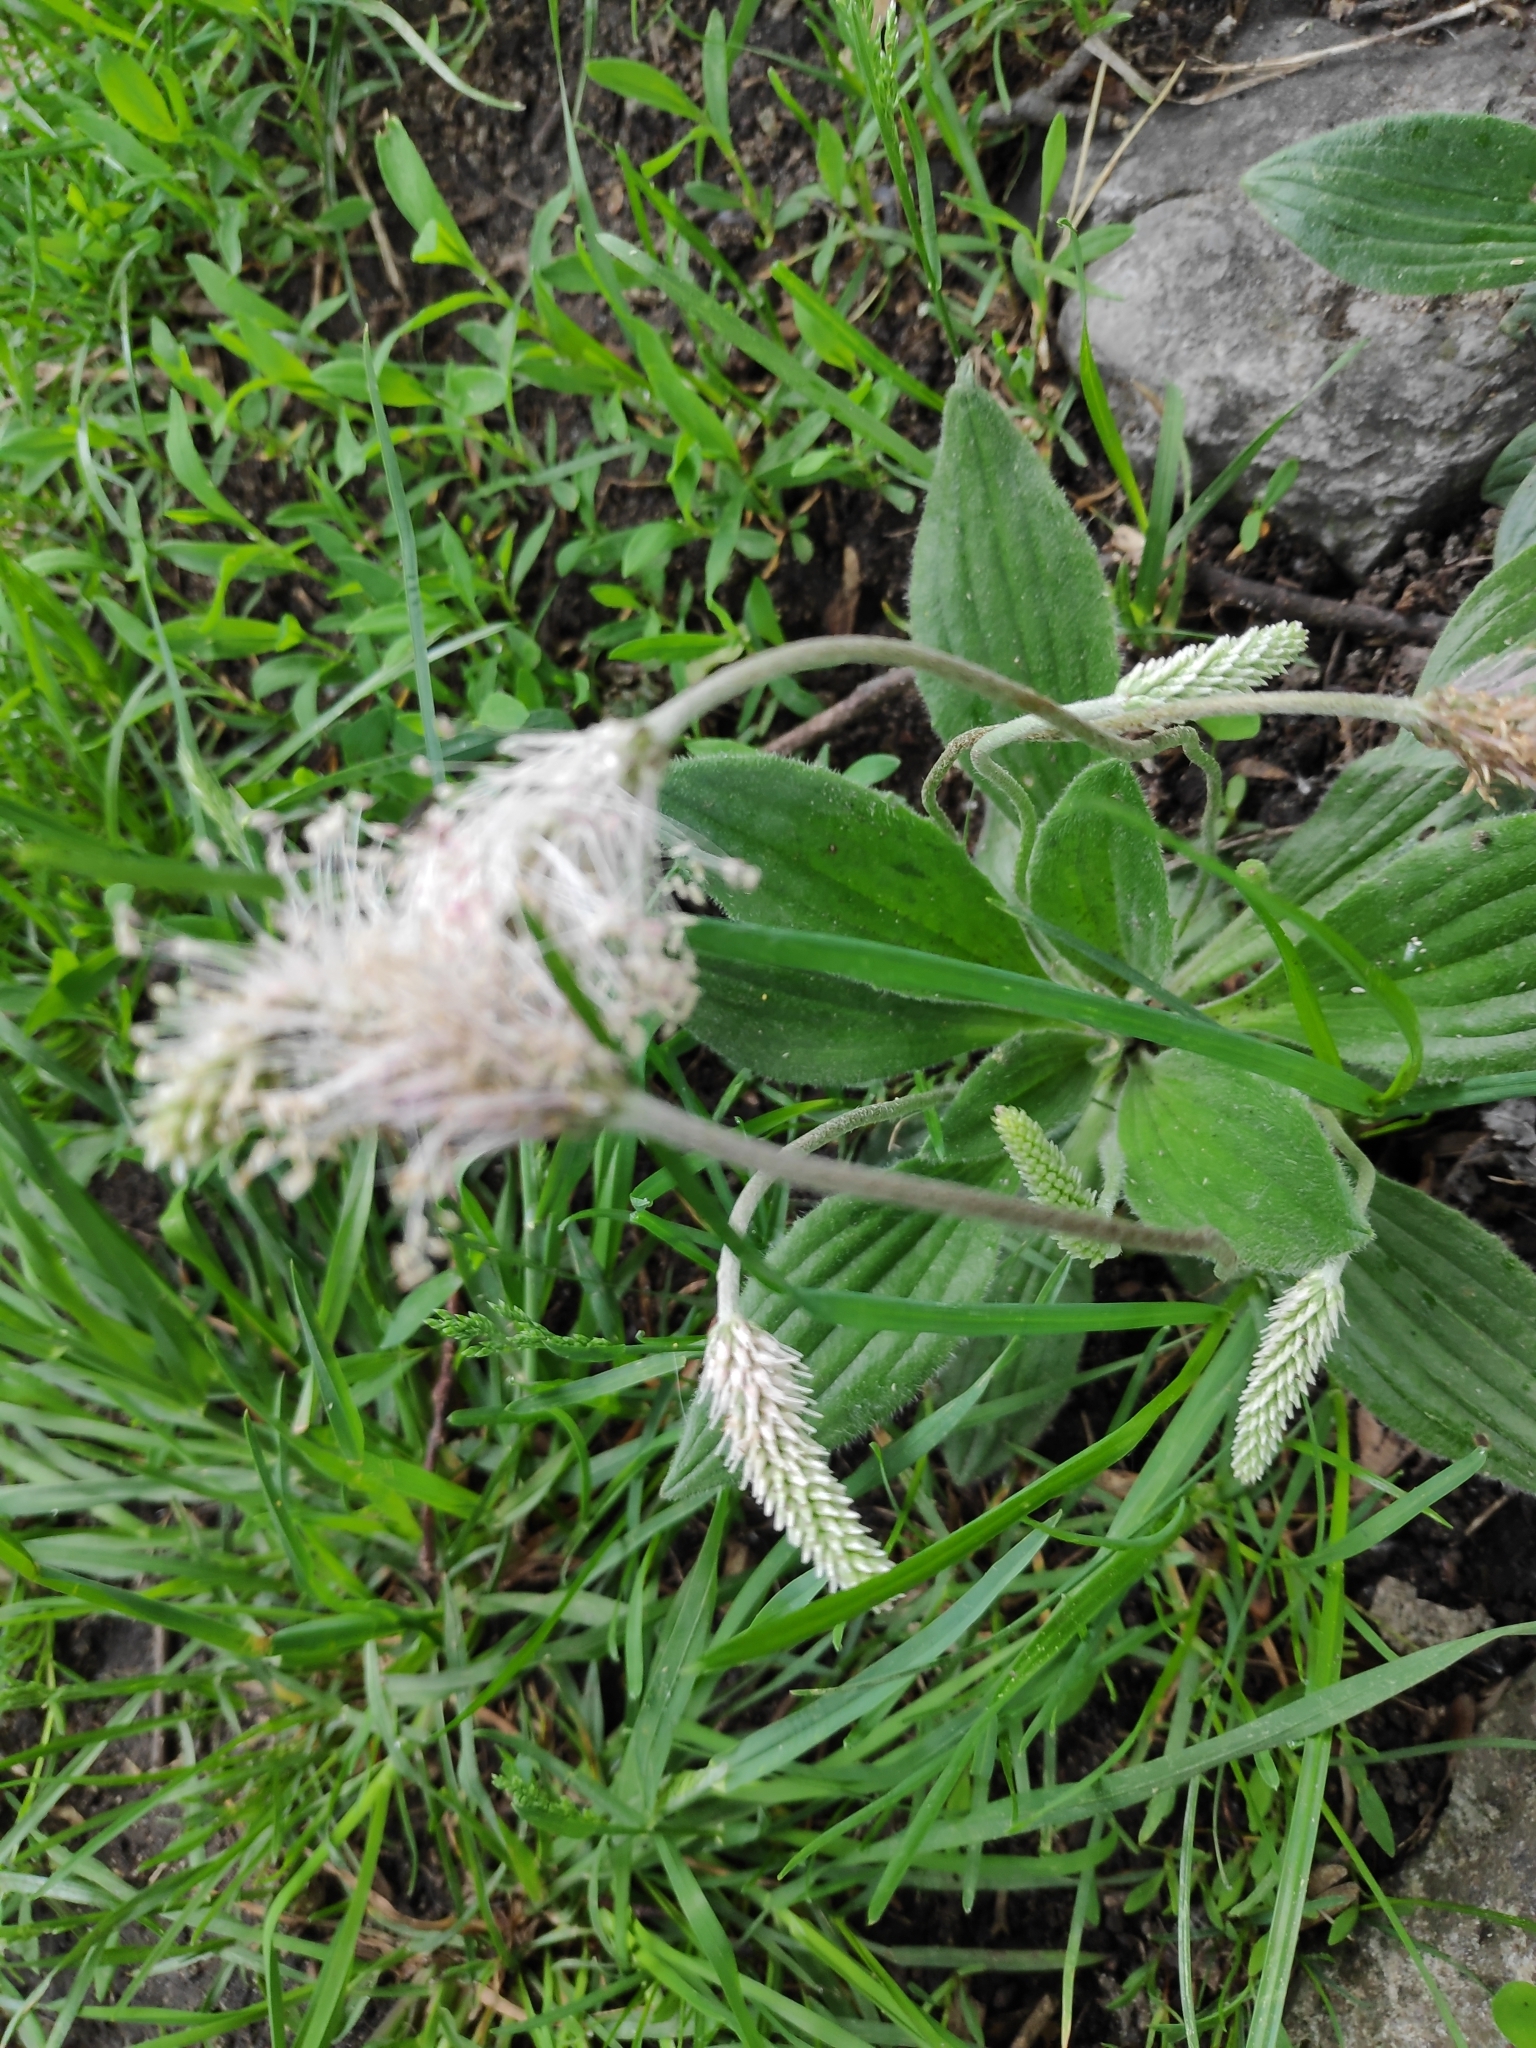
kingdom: Plantae
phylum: Tracheophyta
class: Magnoliopsida
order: Lamiales
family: Plantaginaceae
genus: Plantago
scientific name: Plantago media
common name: Hoary plantain
